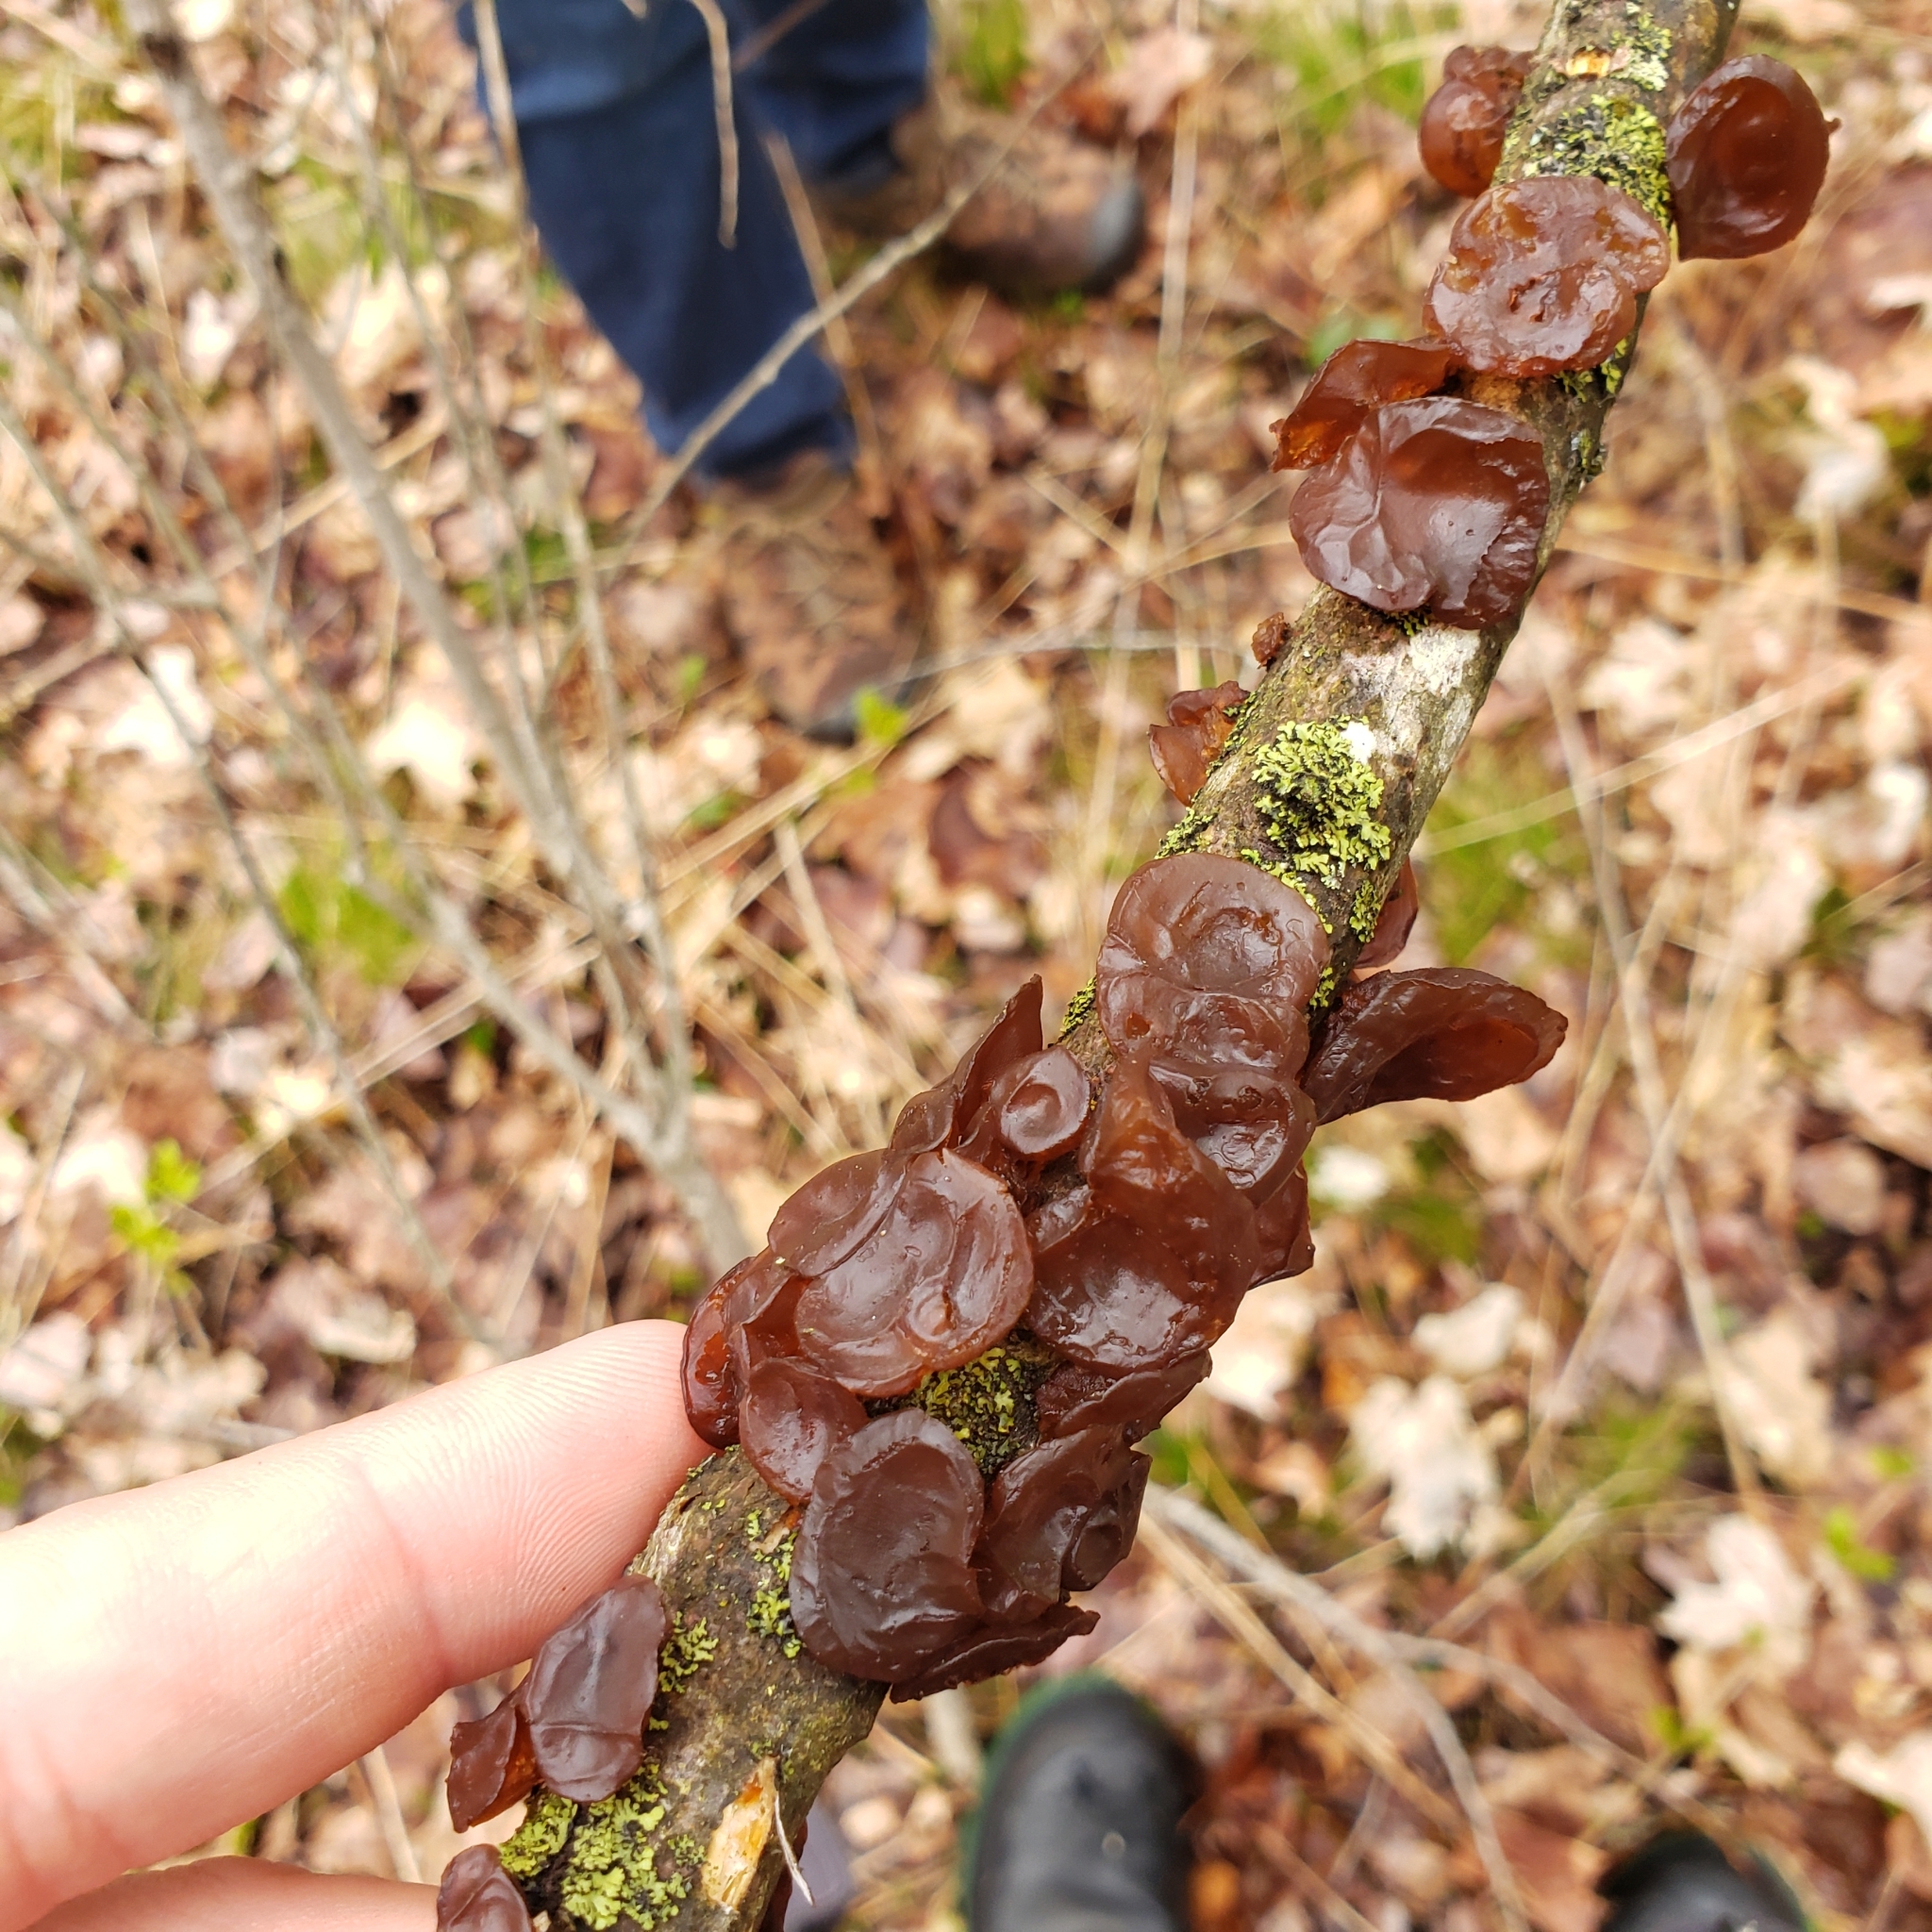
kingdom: Fungi
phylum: Basidiomycota
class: Agaricomycetes
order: Auriculariales
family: Auriculariaceae
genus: Exidia
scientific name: Exidia
